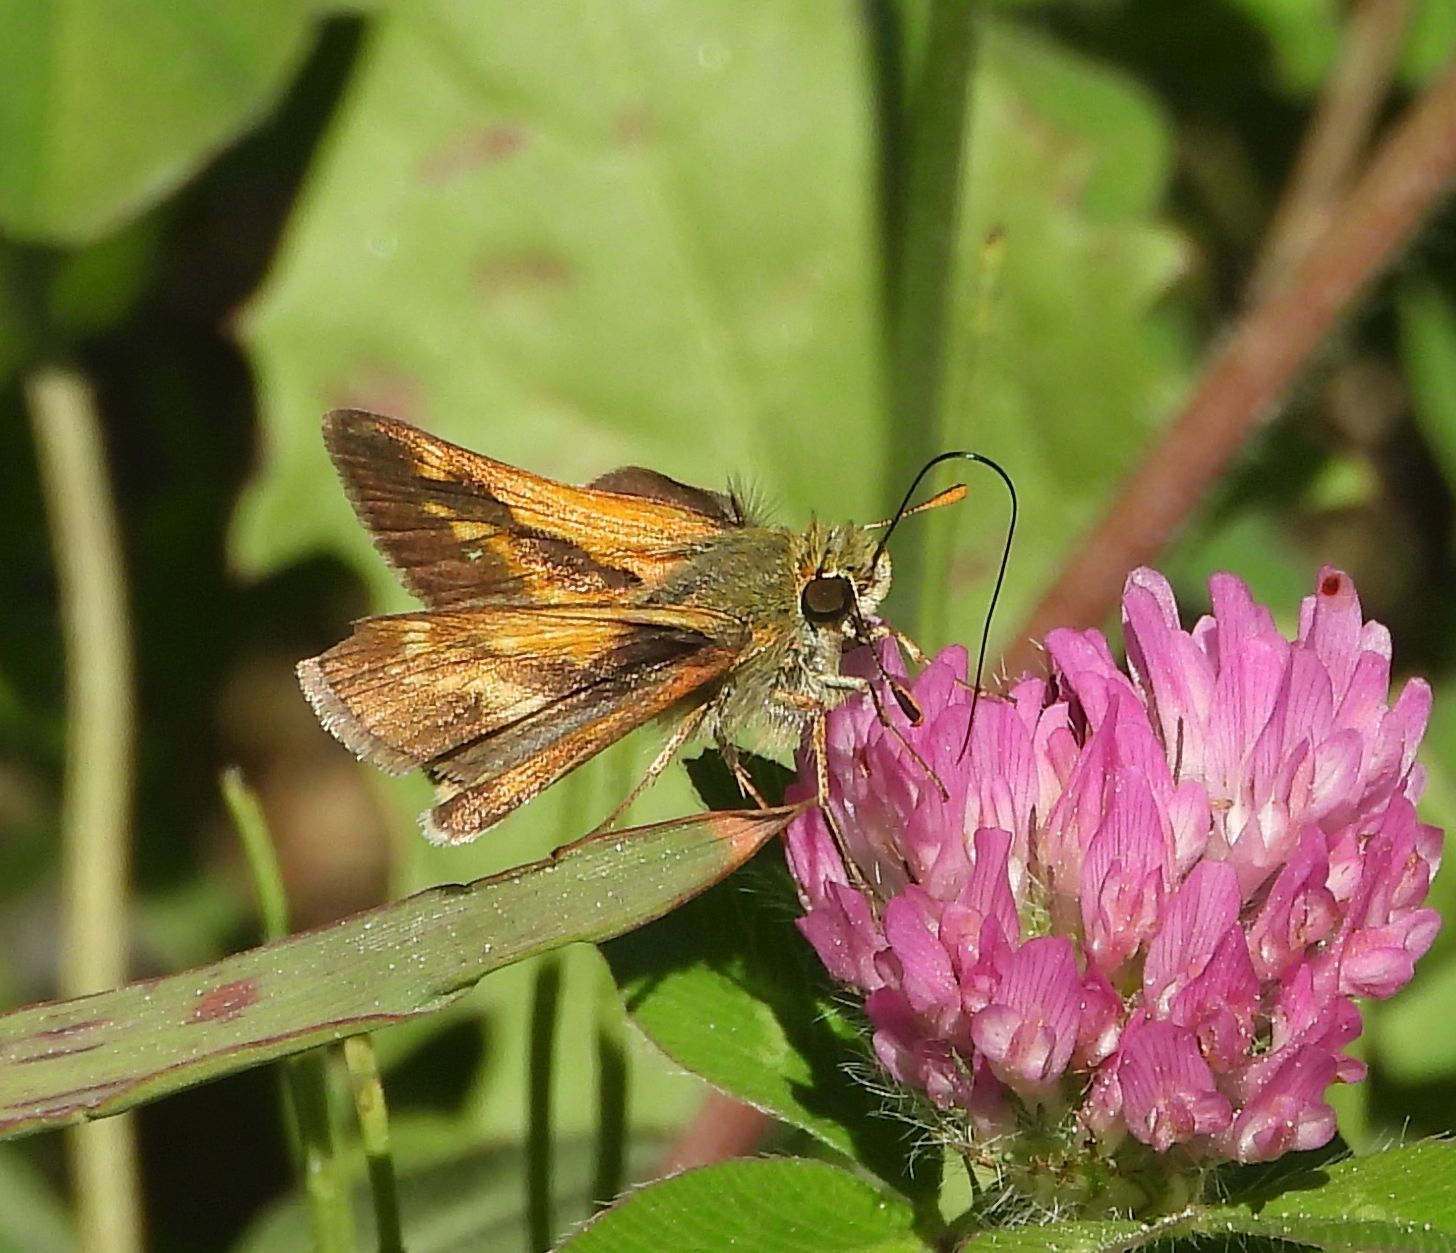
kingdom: Animalia
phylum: Arthropoda
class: Insecta
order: Lepidoptera
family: Hesperiidae
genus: Polites
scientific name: Polites mystic
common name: Long dash
